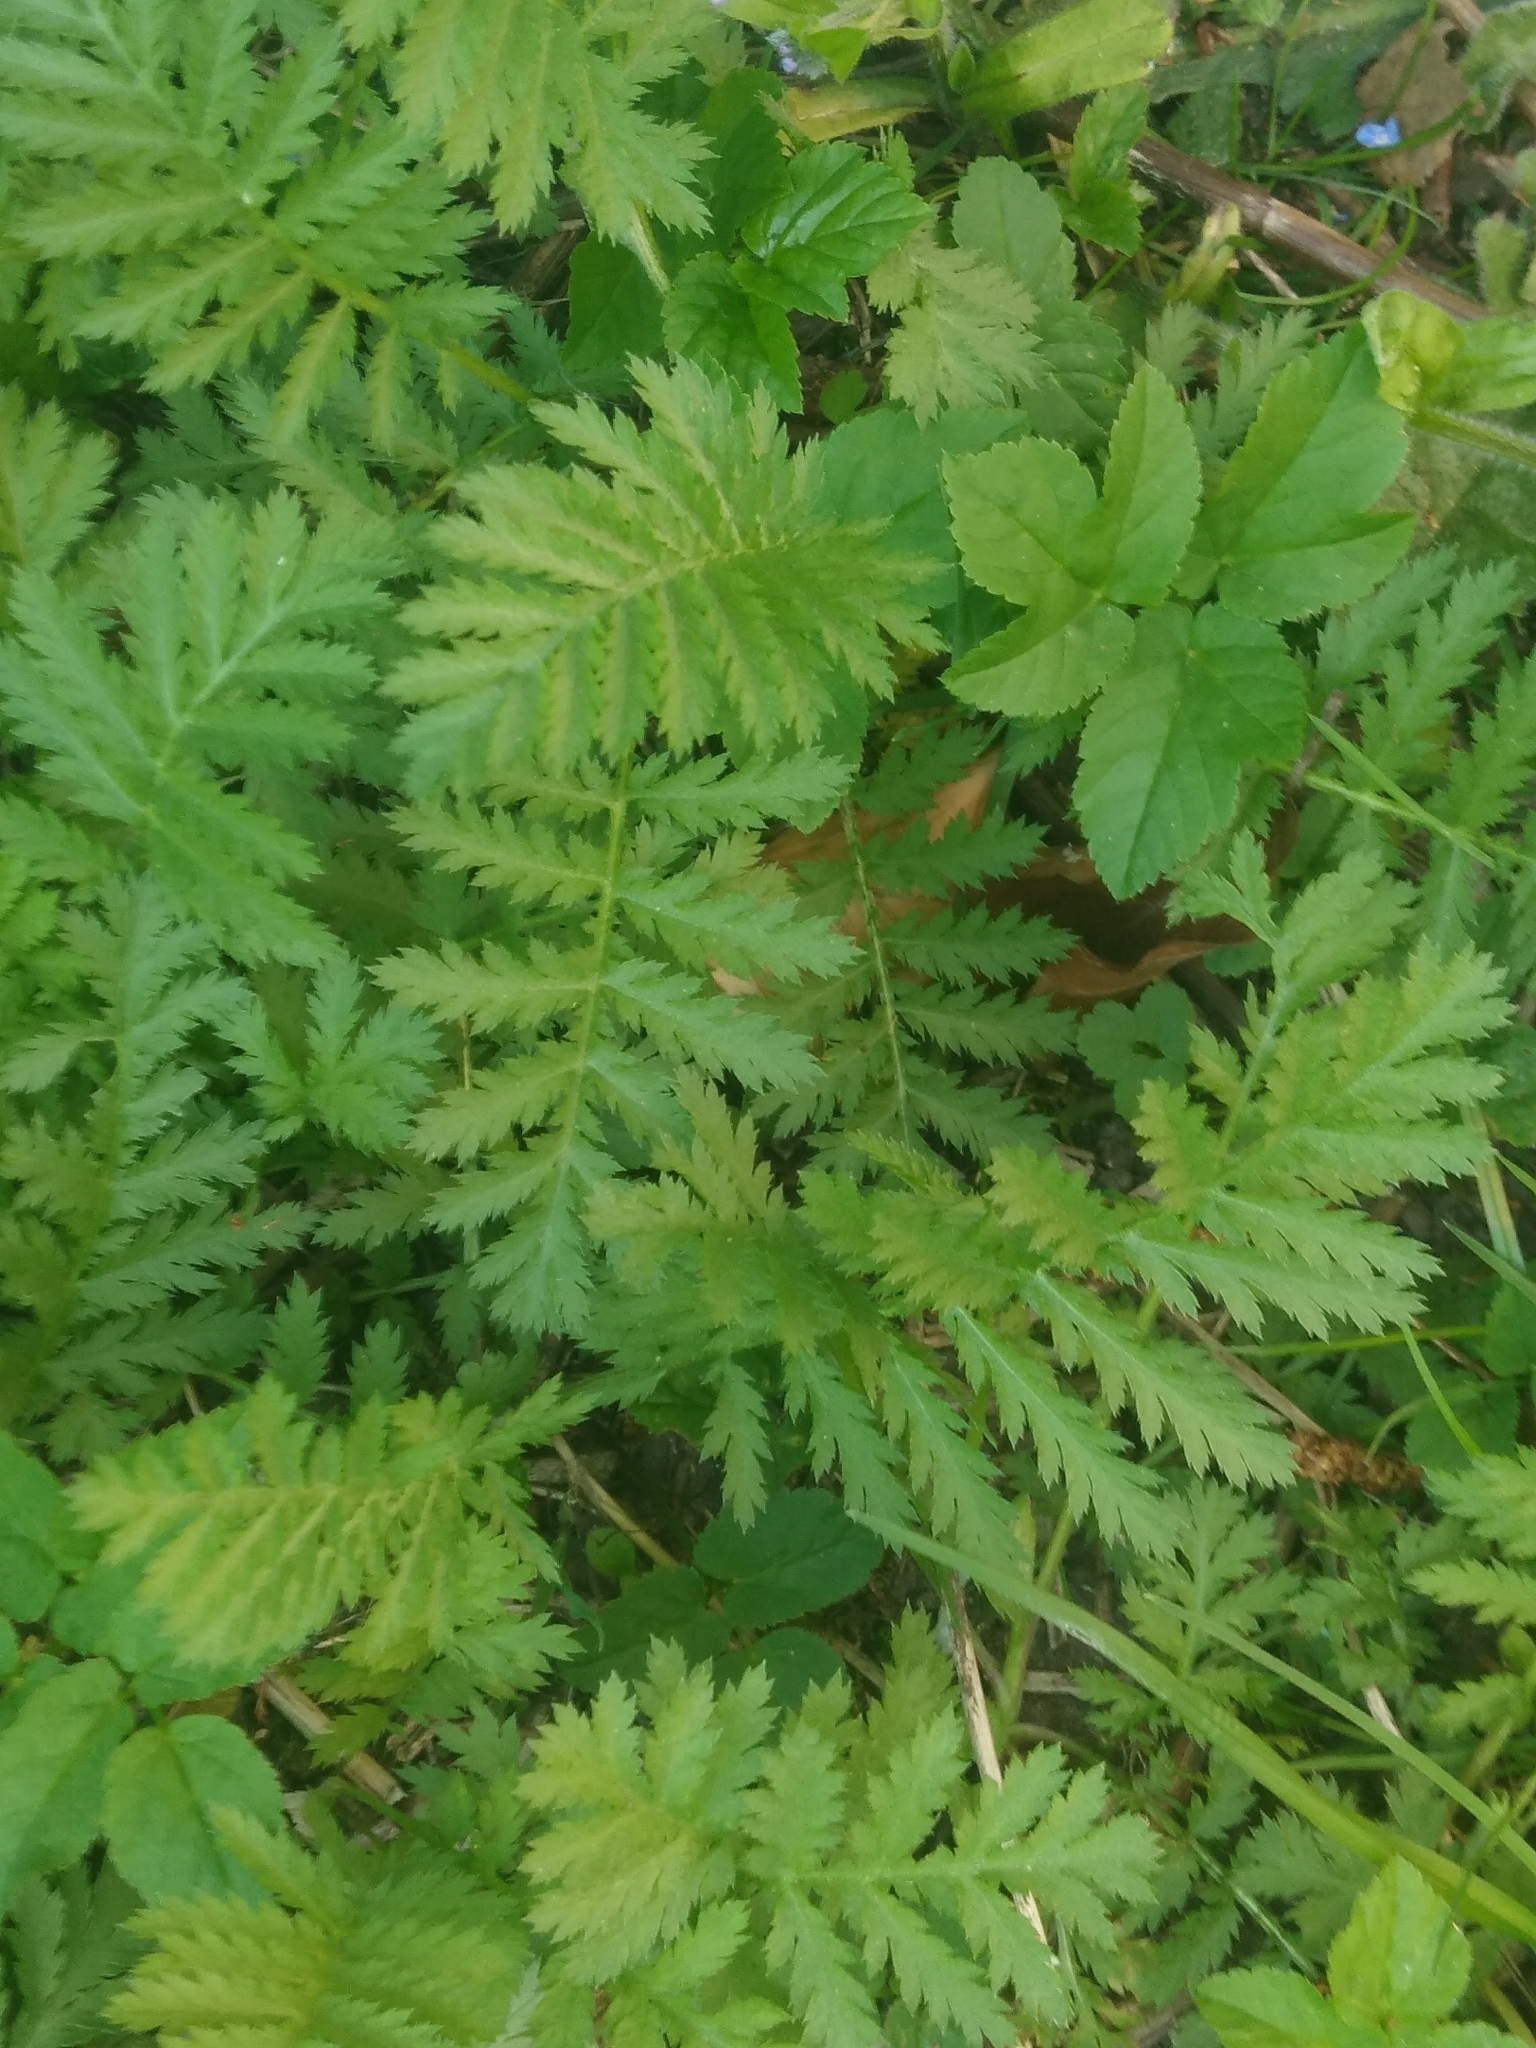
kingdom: Plantae
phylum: Tracheophyta
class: Magnoliopsida
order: Asterales
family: Asteraceae
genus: Tanacetum
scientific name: Tanacetum vulgare
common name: Common tansy
